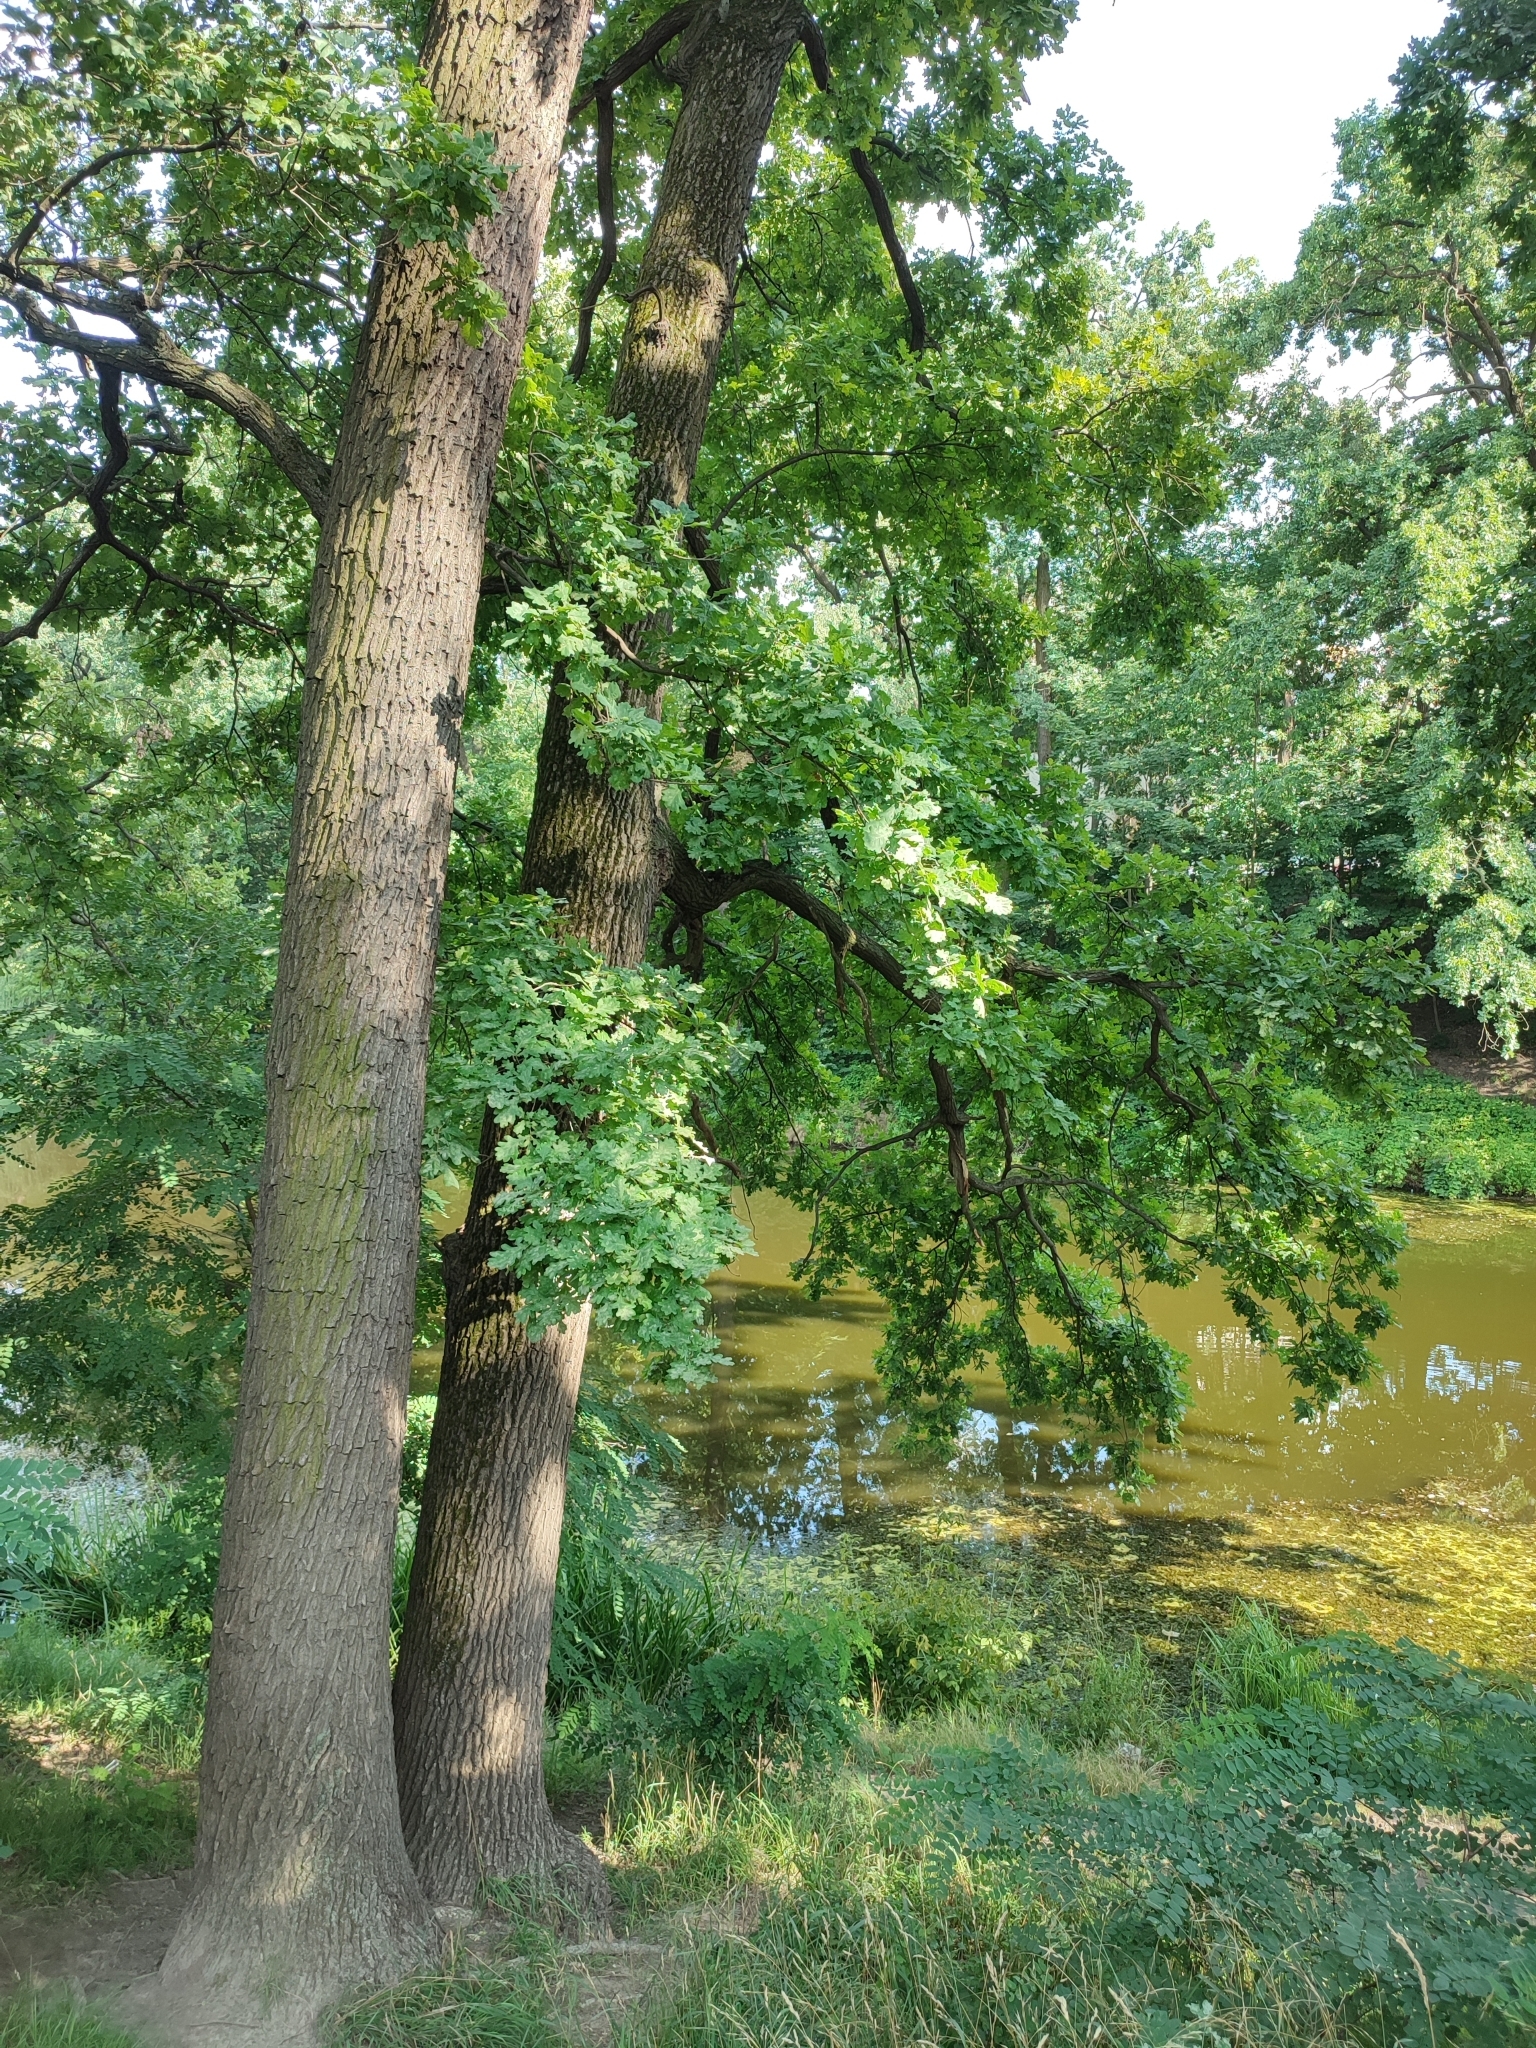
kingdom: Plantae
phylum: Tracheophyta
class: Magnoliopsida
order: Fagales
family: Fagaceae
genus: Quercus
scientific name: Quercus robur
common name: Pedunculate oak
